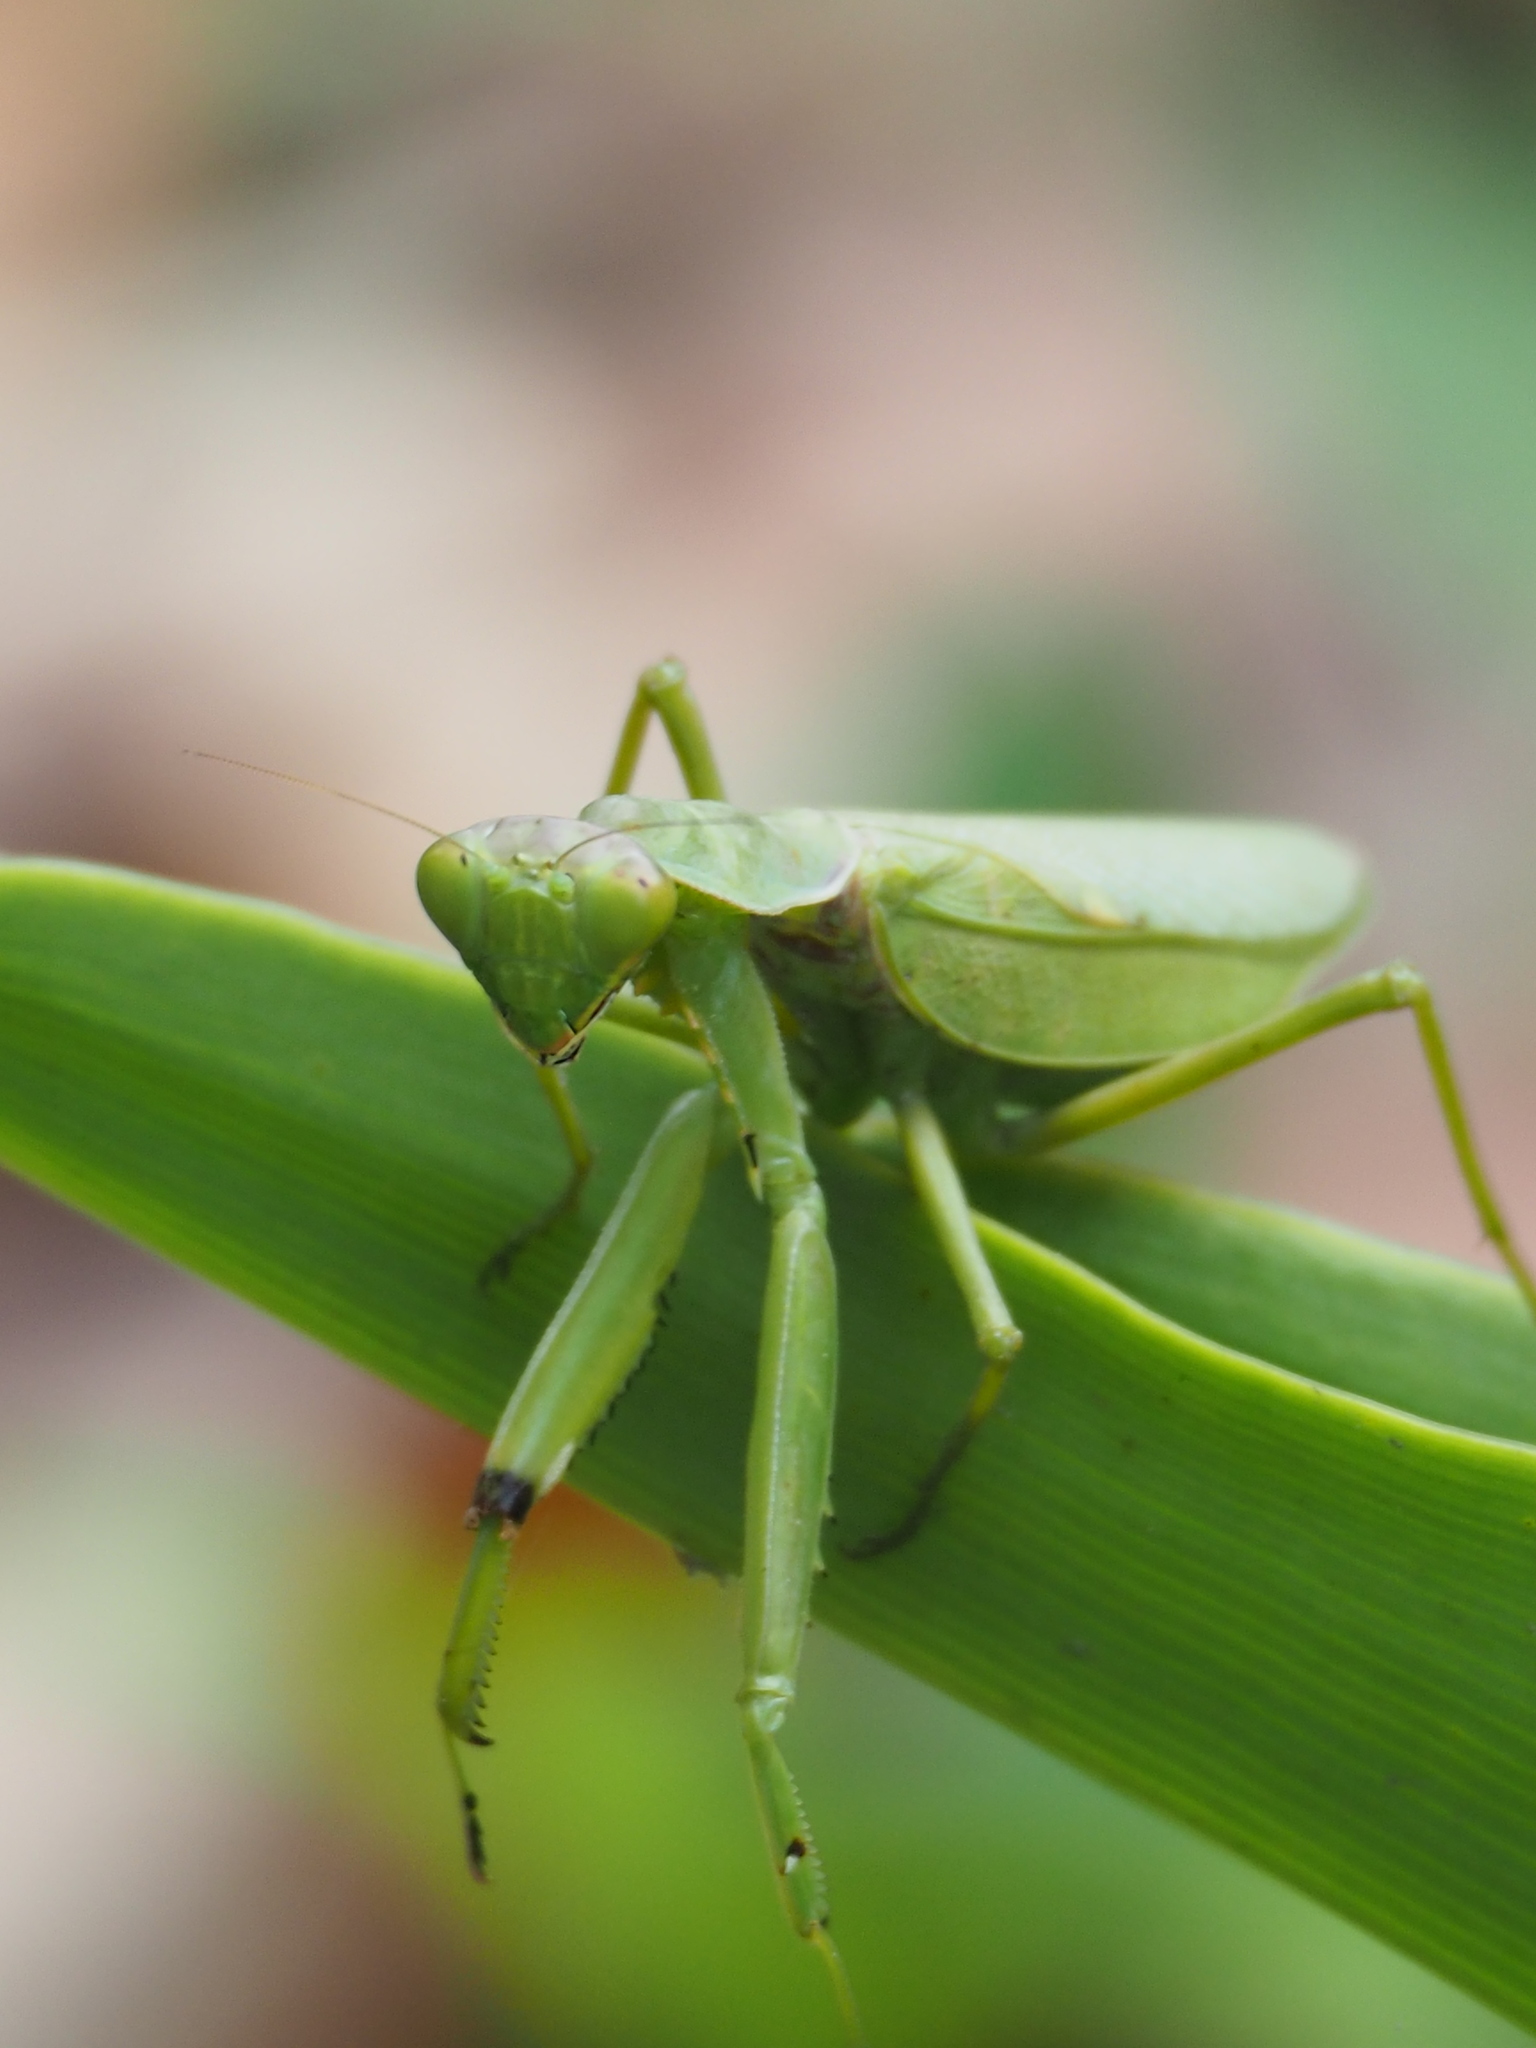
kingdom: Animalia
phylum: Arthropoda
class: Insecta
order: Mantodea
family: Mantidae
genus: Hierodula
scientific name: Hierodula patellifera
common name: Asian mantis
